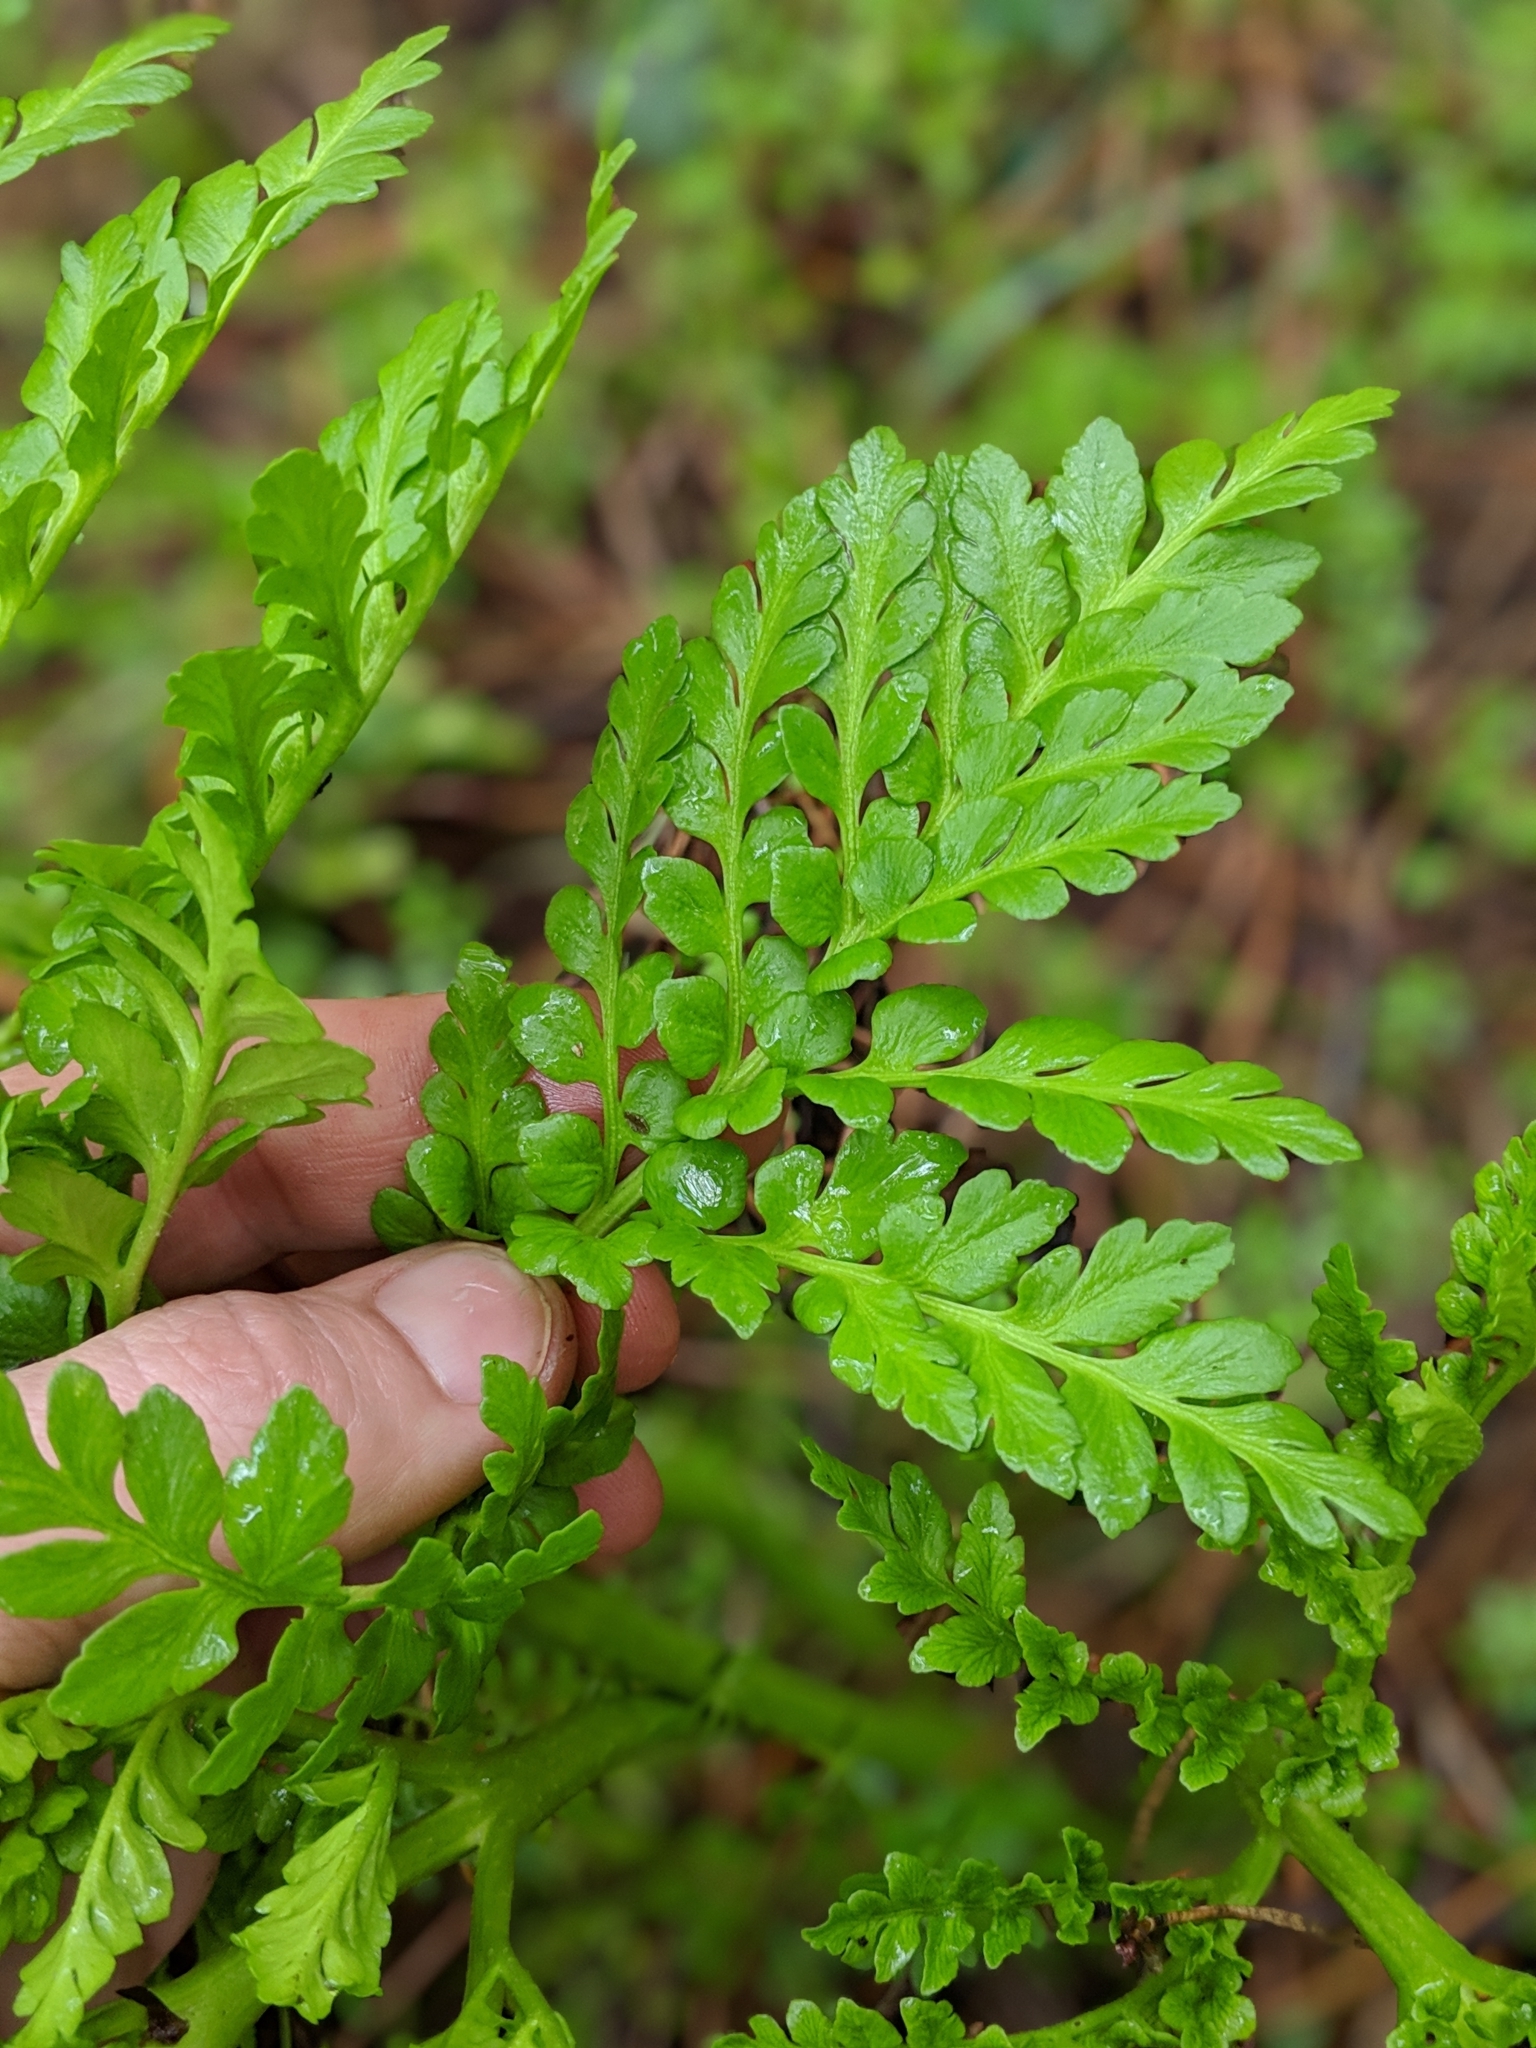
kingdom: Plantae
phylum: Tracheophyta
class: Polypodiopsida
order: Ophioglossales
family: Ophioglossaceae
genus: Sceptridium
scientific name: Sceptridium multifidum
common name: Leathery grape fern
